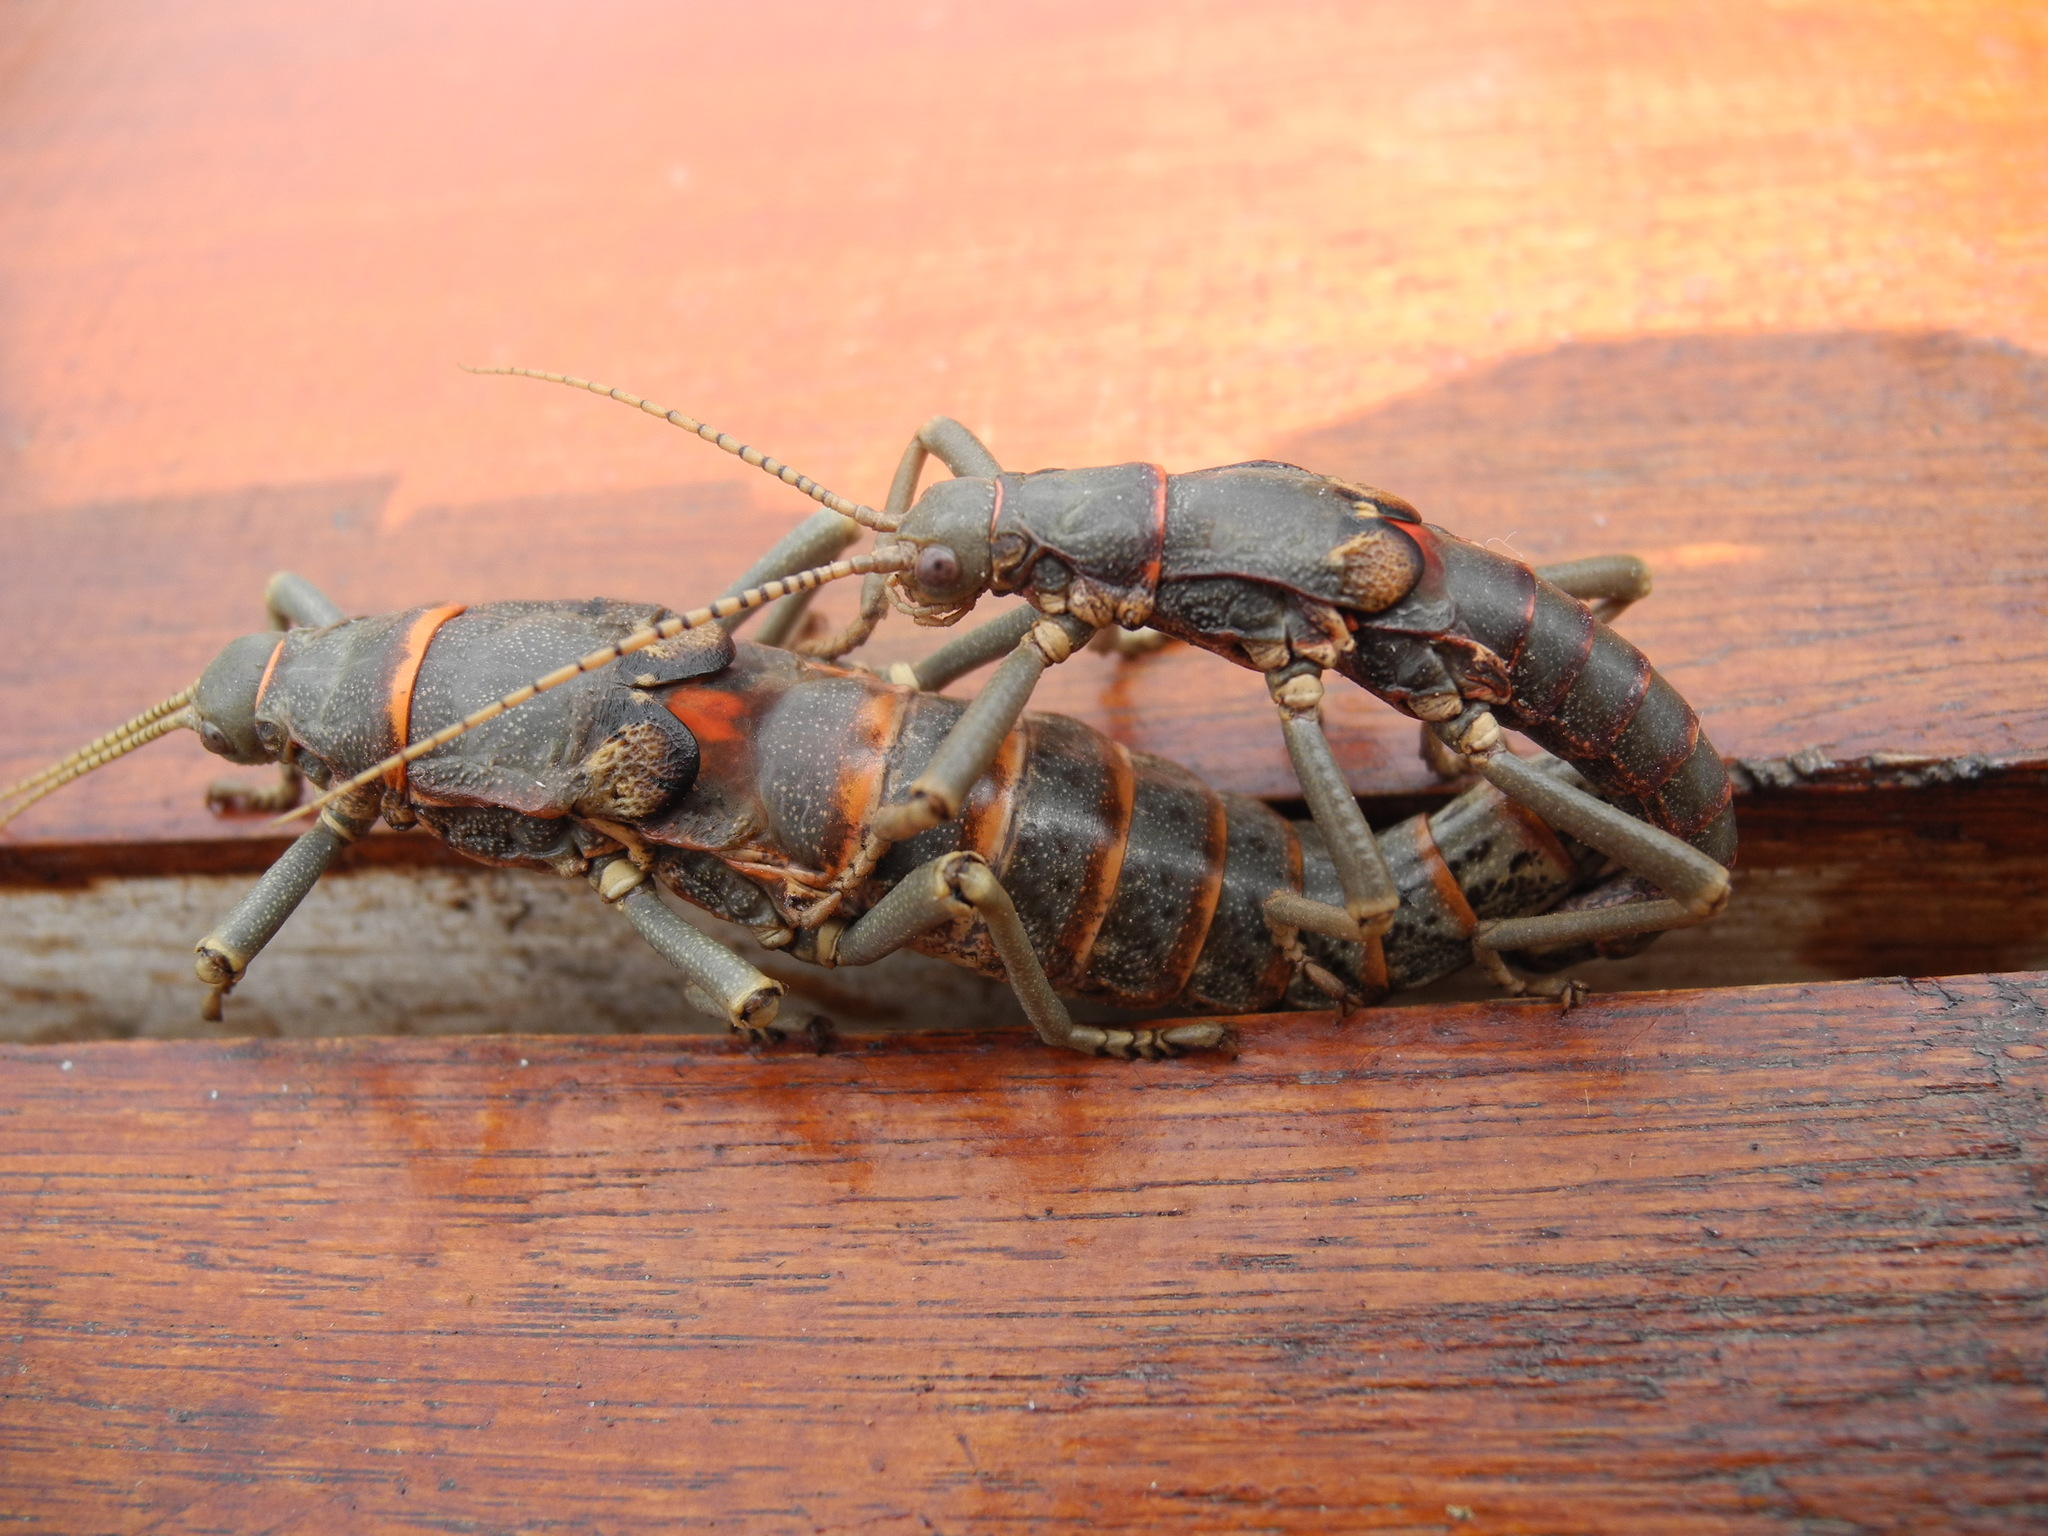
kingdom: Animalia
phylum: Arthropoda
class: Insecta
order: Phasmida
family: Agathemeridae
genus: Agathemera
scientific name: Agathemera luteola
